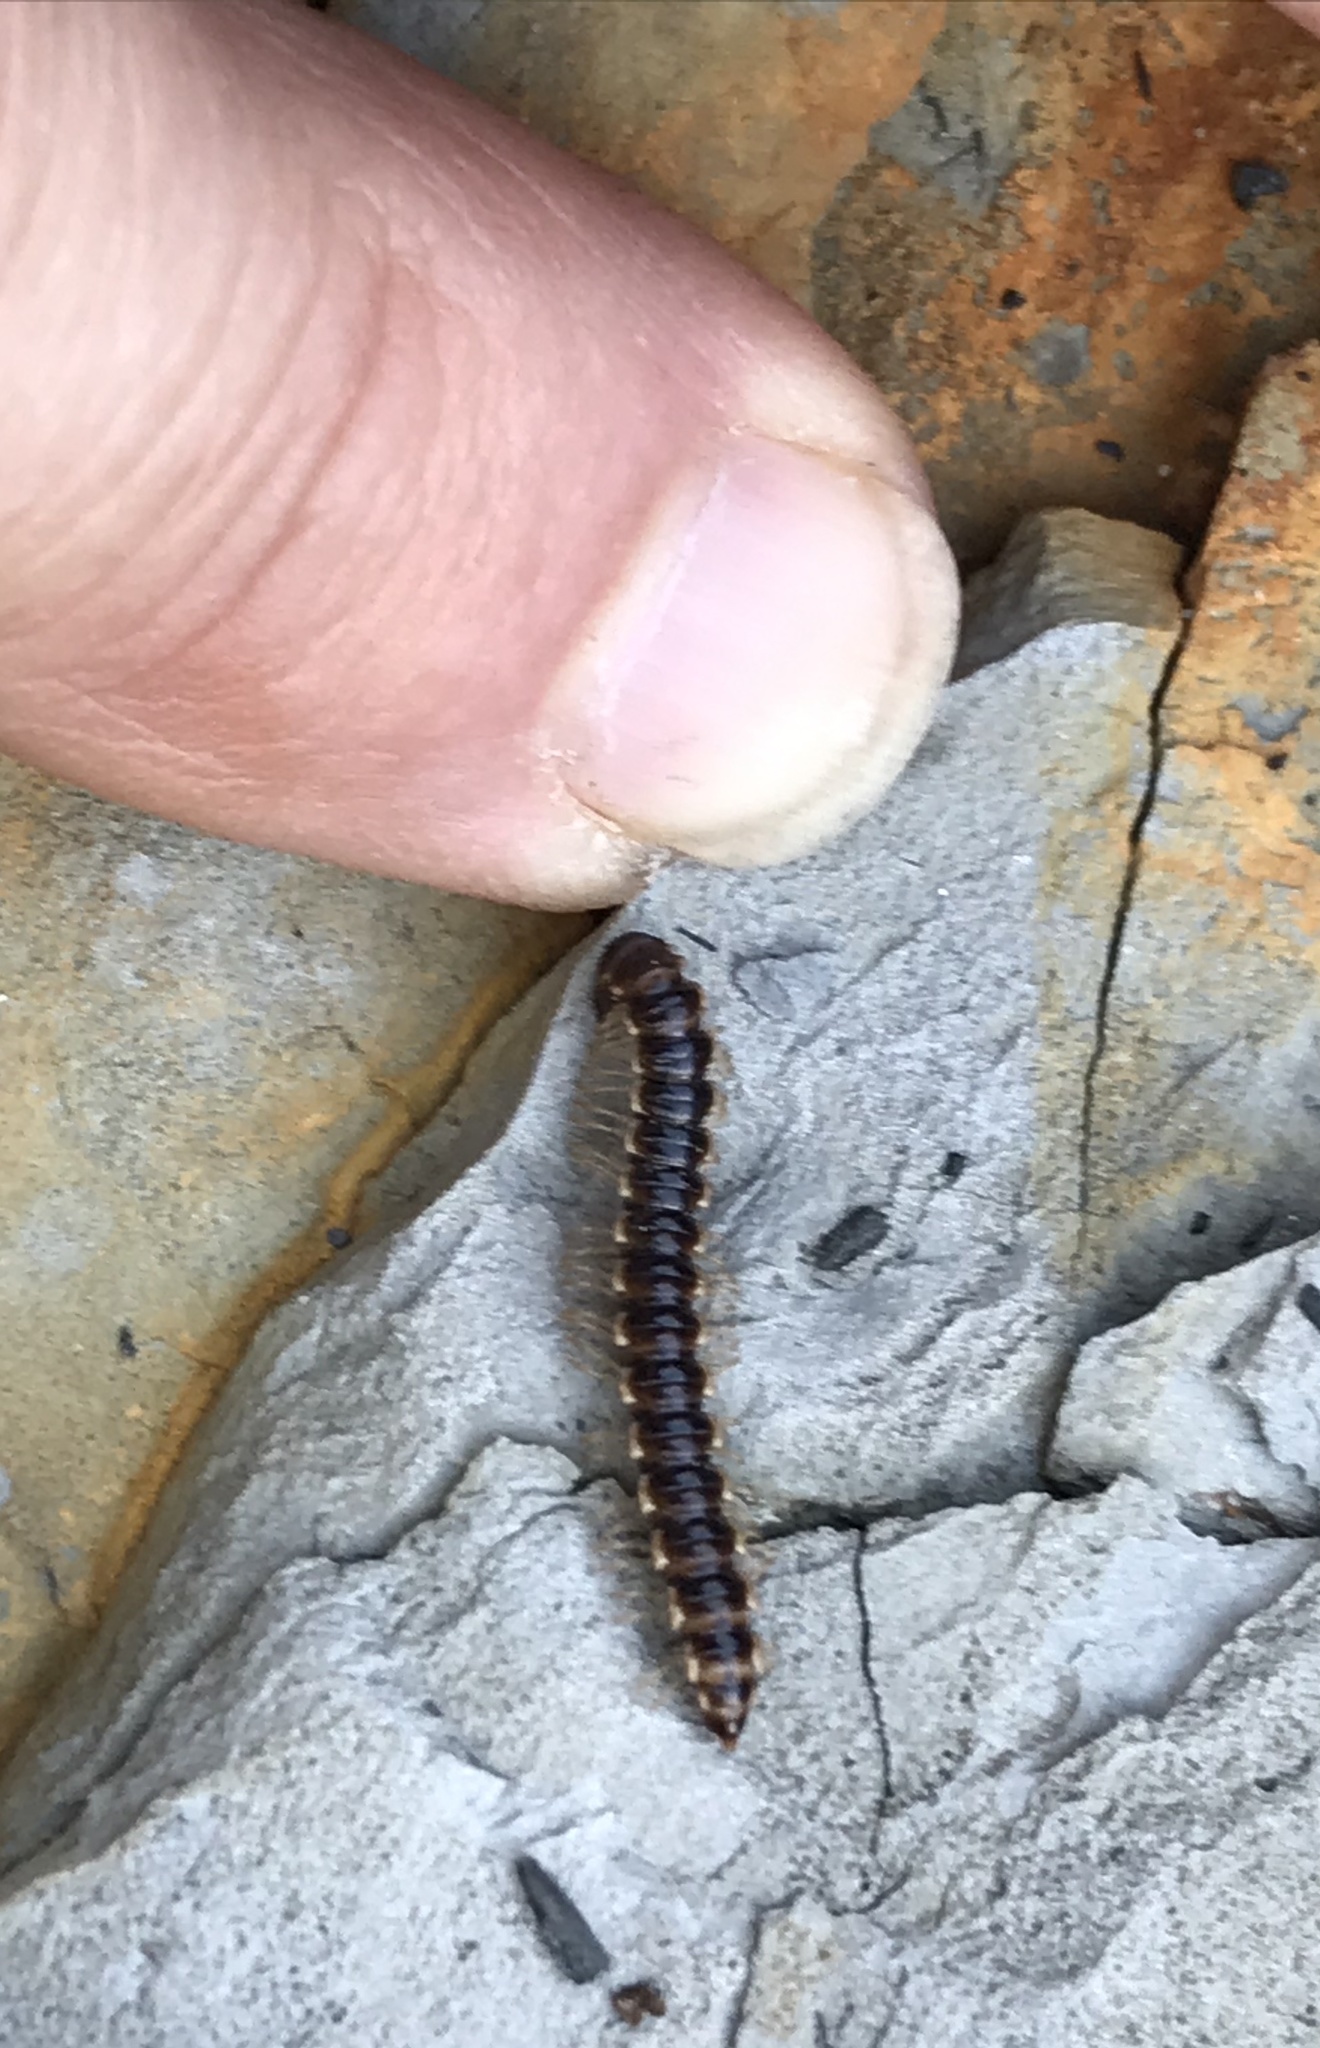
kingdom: Animalia
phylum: Arthropoda
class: Diplopoda
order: Polydesmida
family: Paradoxosomatidae
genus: Oxidus
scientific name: Oxidus gracilis
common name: Greenhouse millipede
